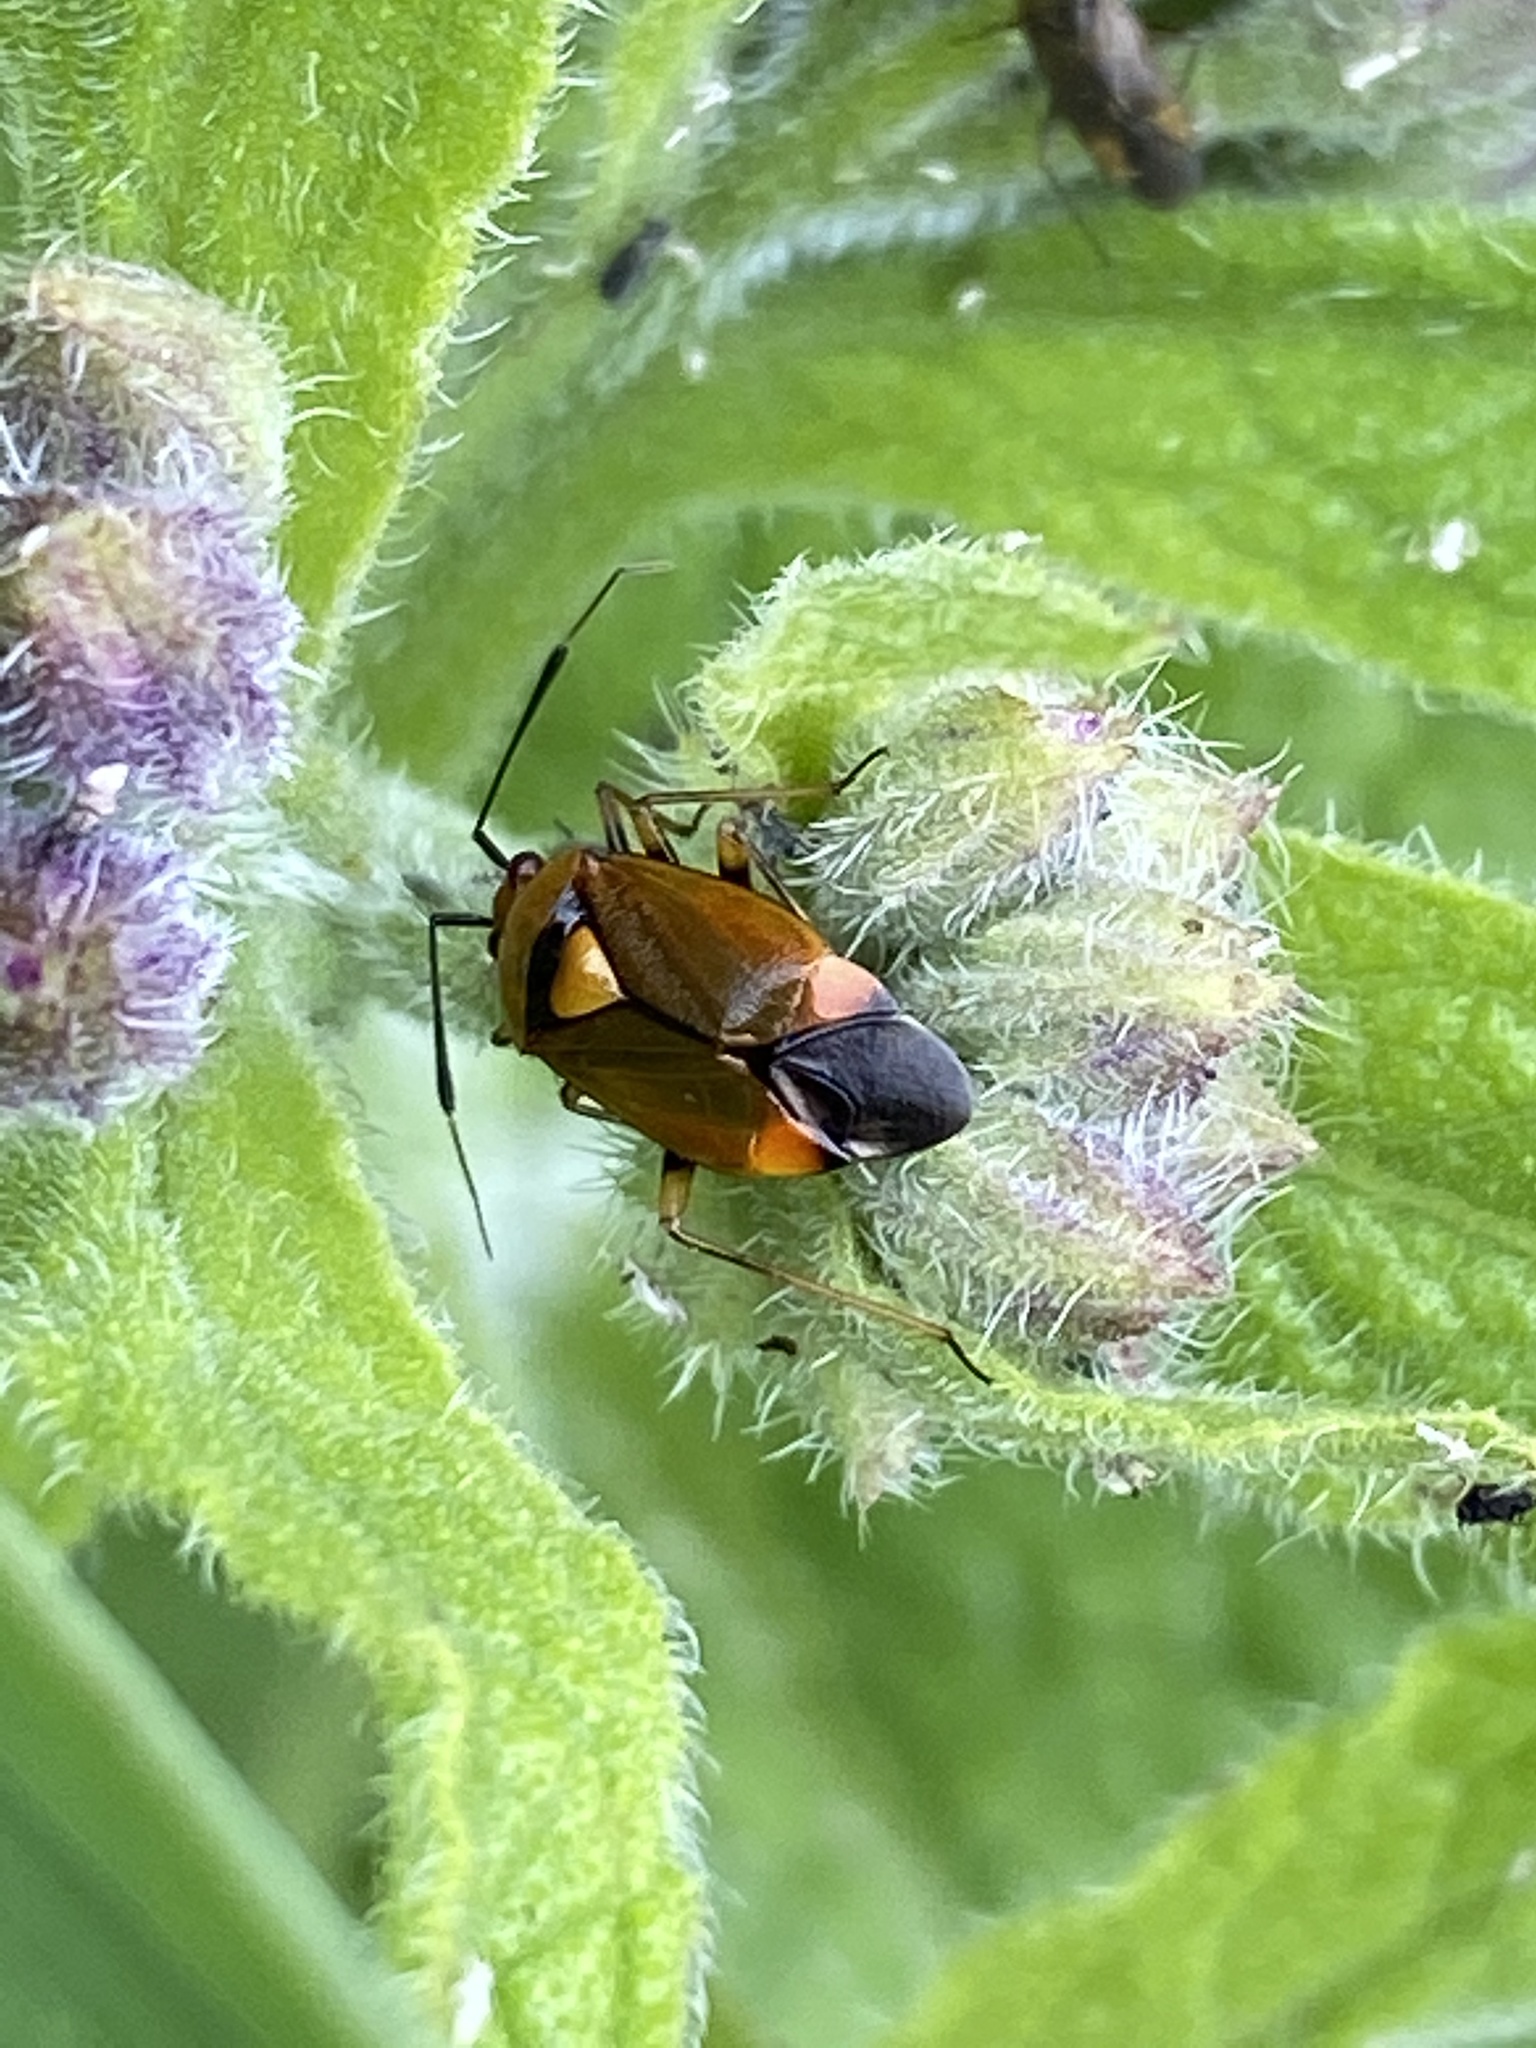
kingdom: Animalia
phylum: Arthropoda
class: Insecta
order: Hemiptera
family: Miridae
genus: Deraeocoris
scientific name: Deraeocoris ruber
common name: Plant bug
